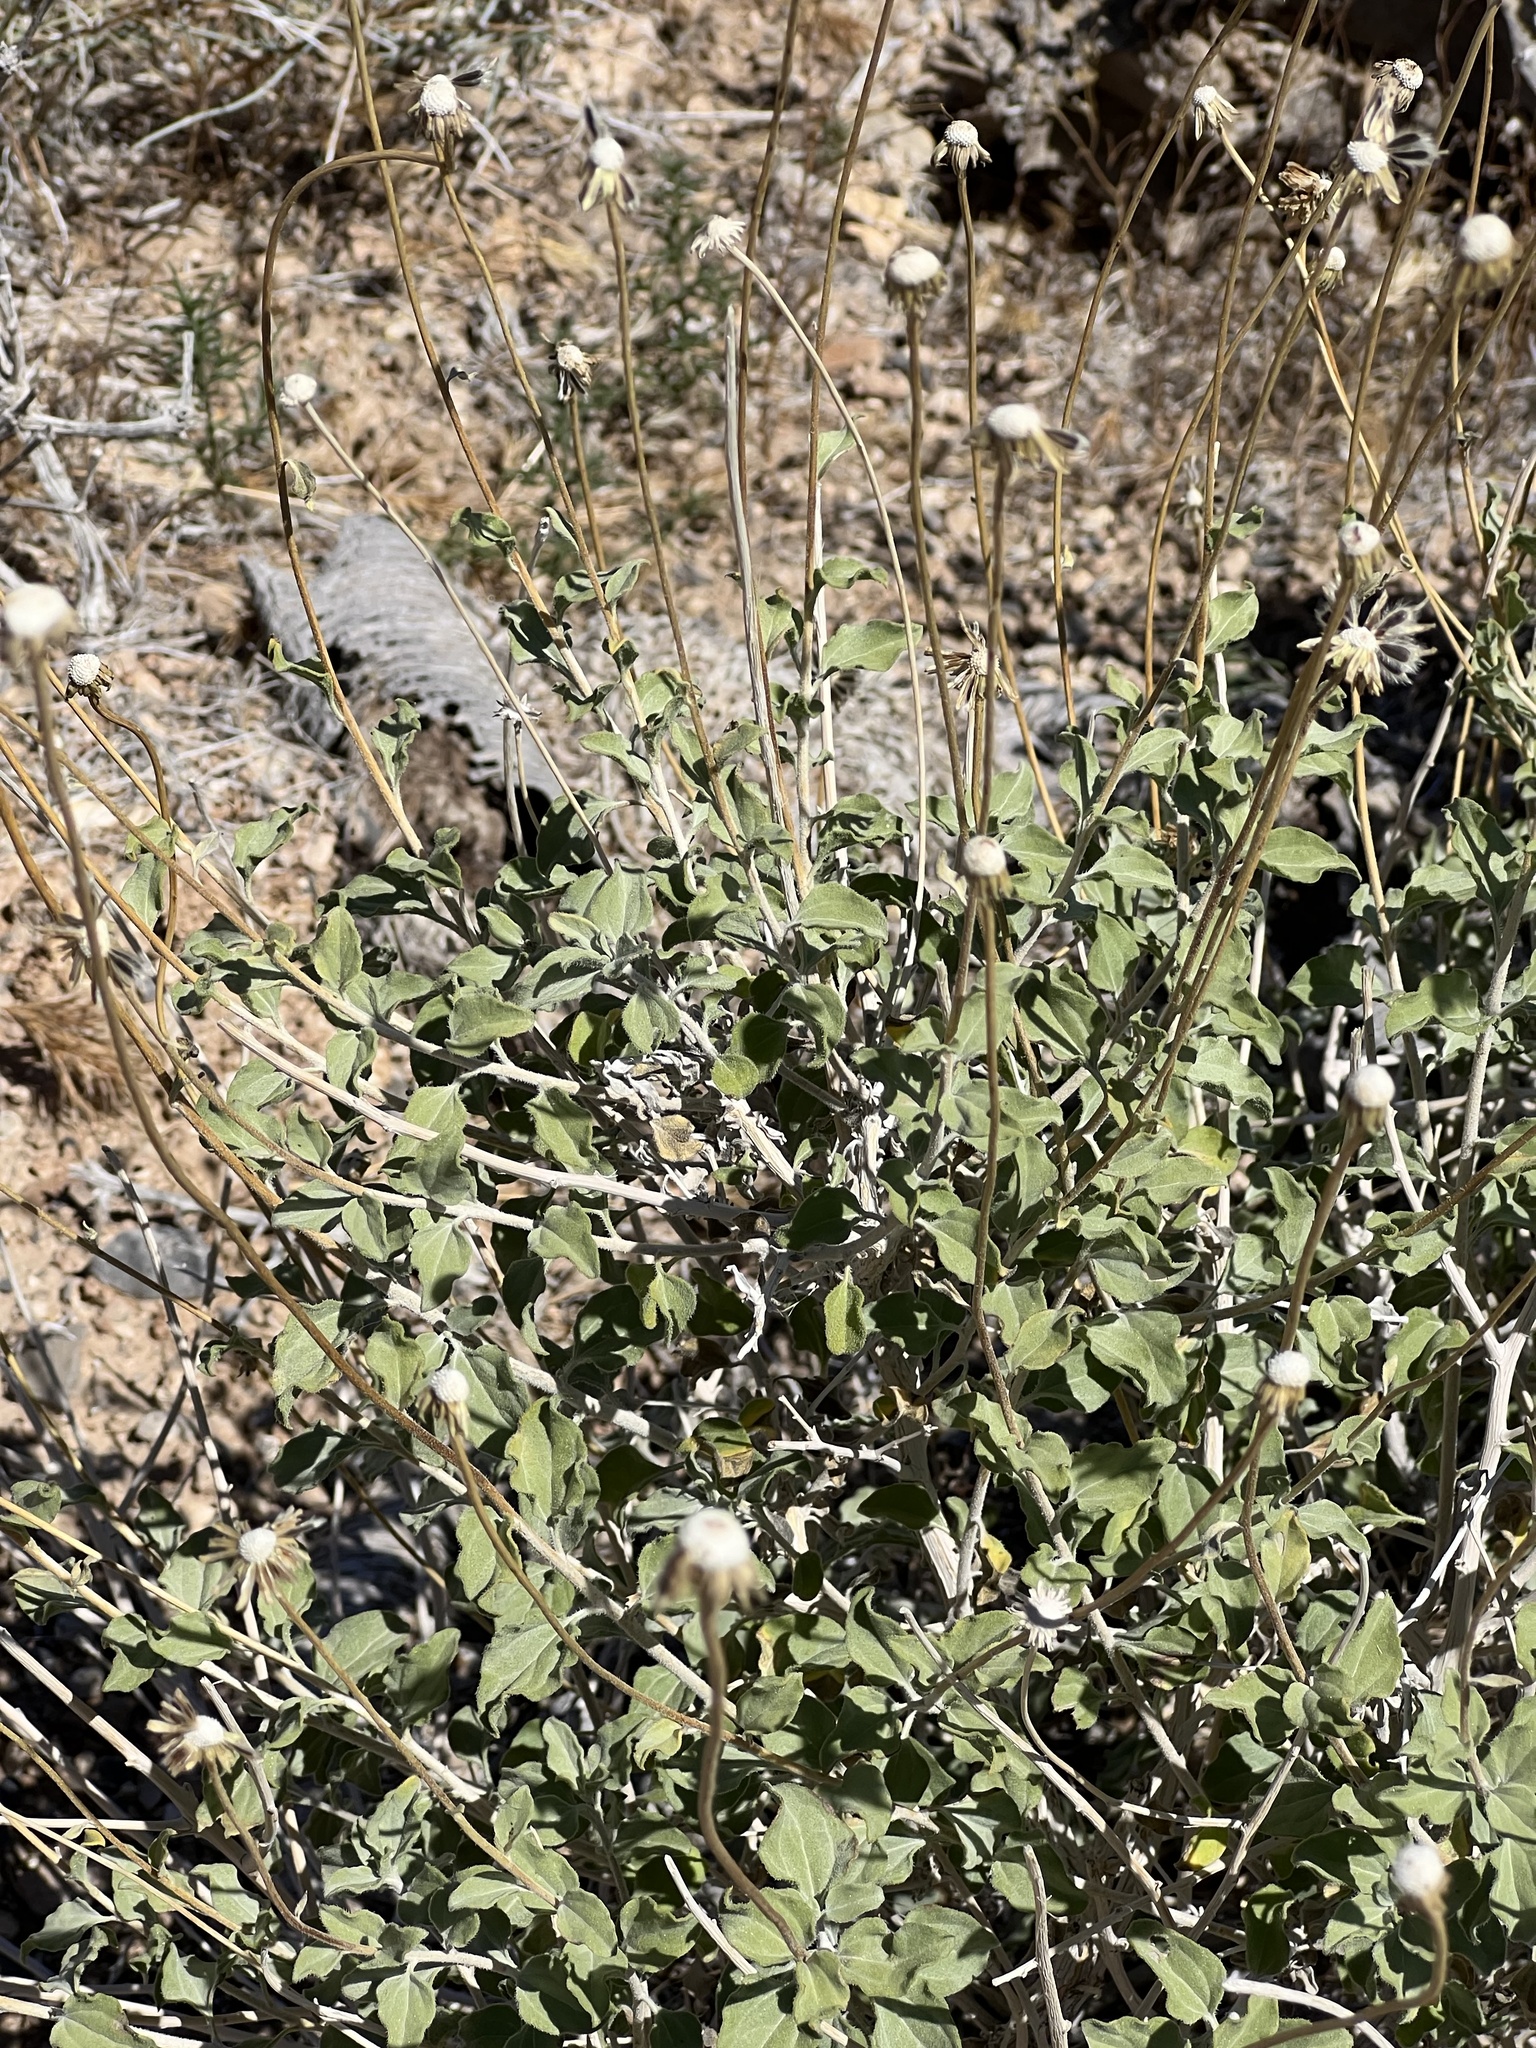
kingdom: Plantae
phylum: Tracheophyta
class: Magnoliopsida
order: Asterales
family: Asteraceae
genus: Encelia
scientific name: Encelia
